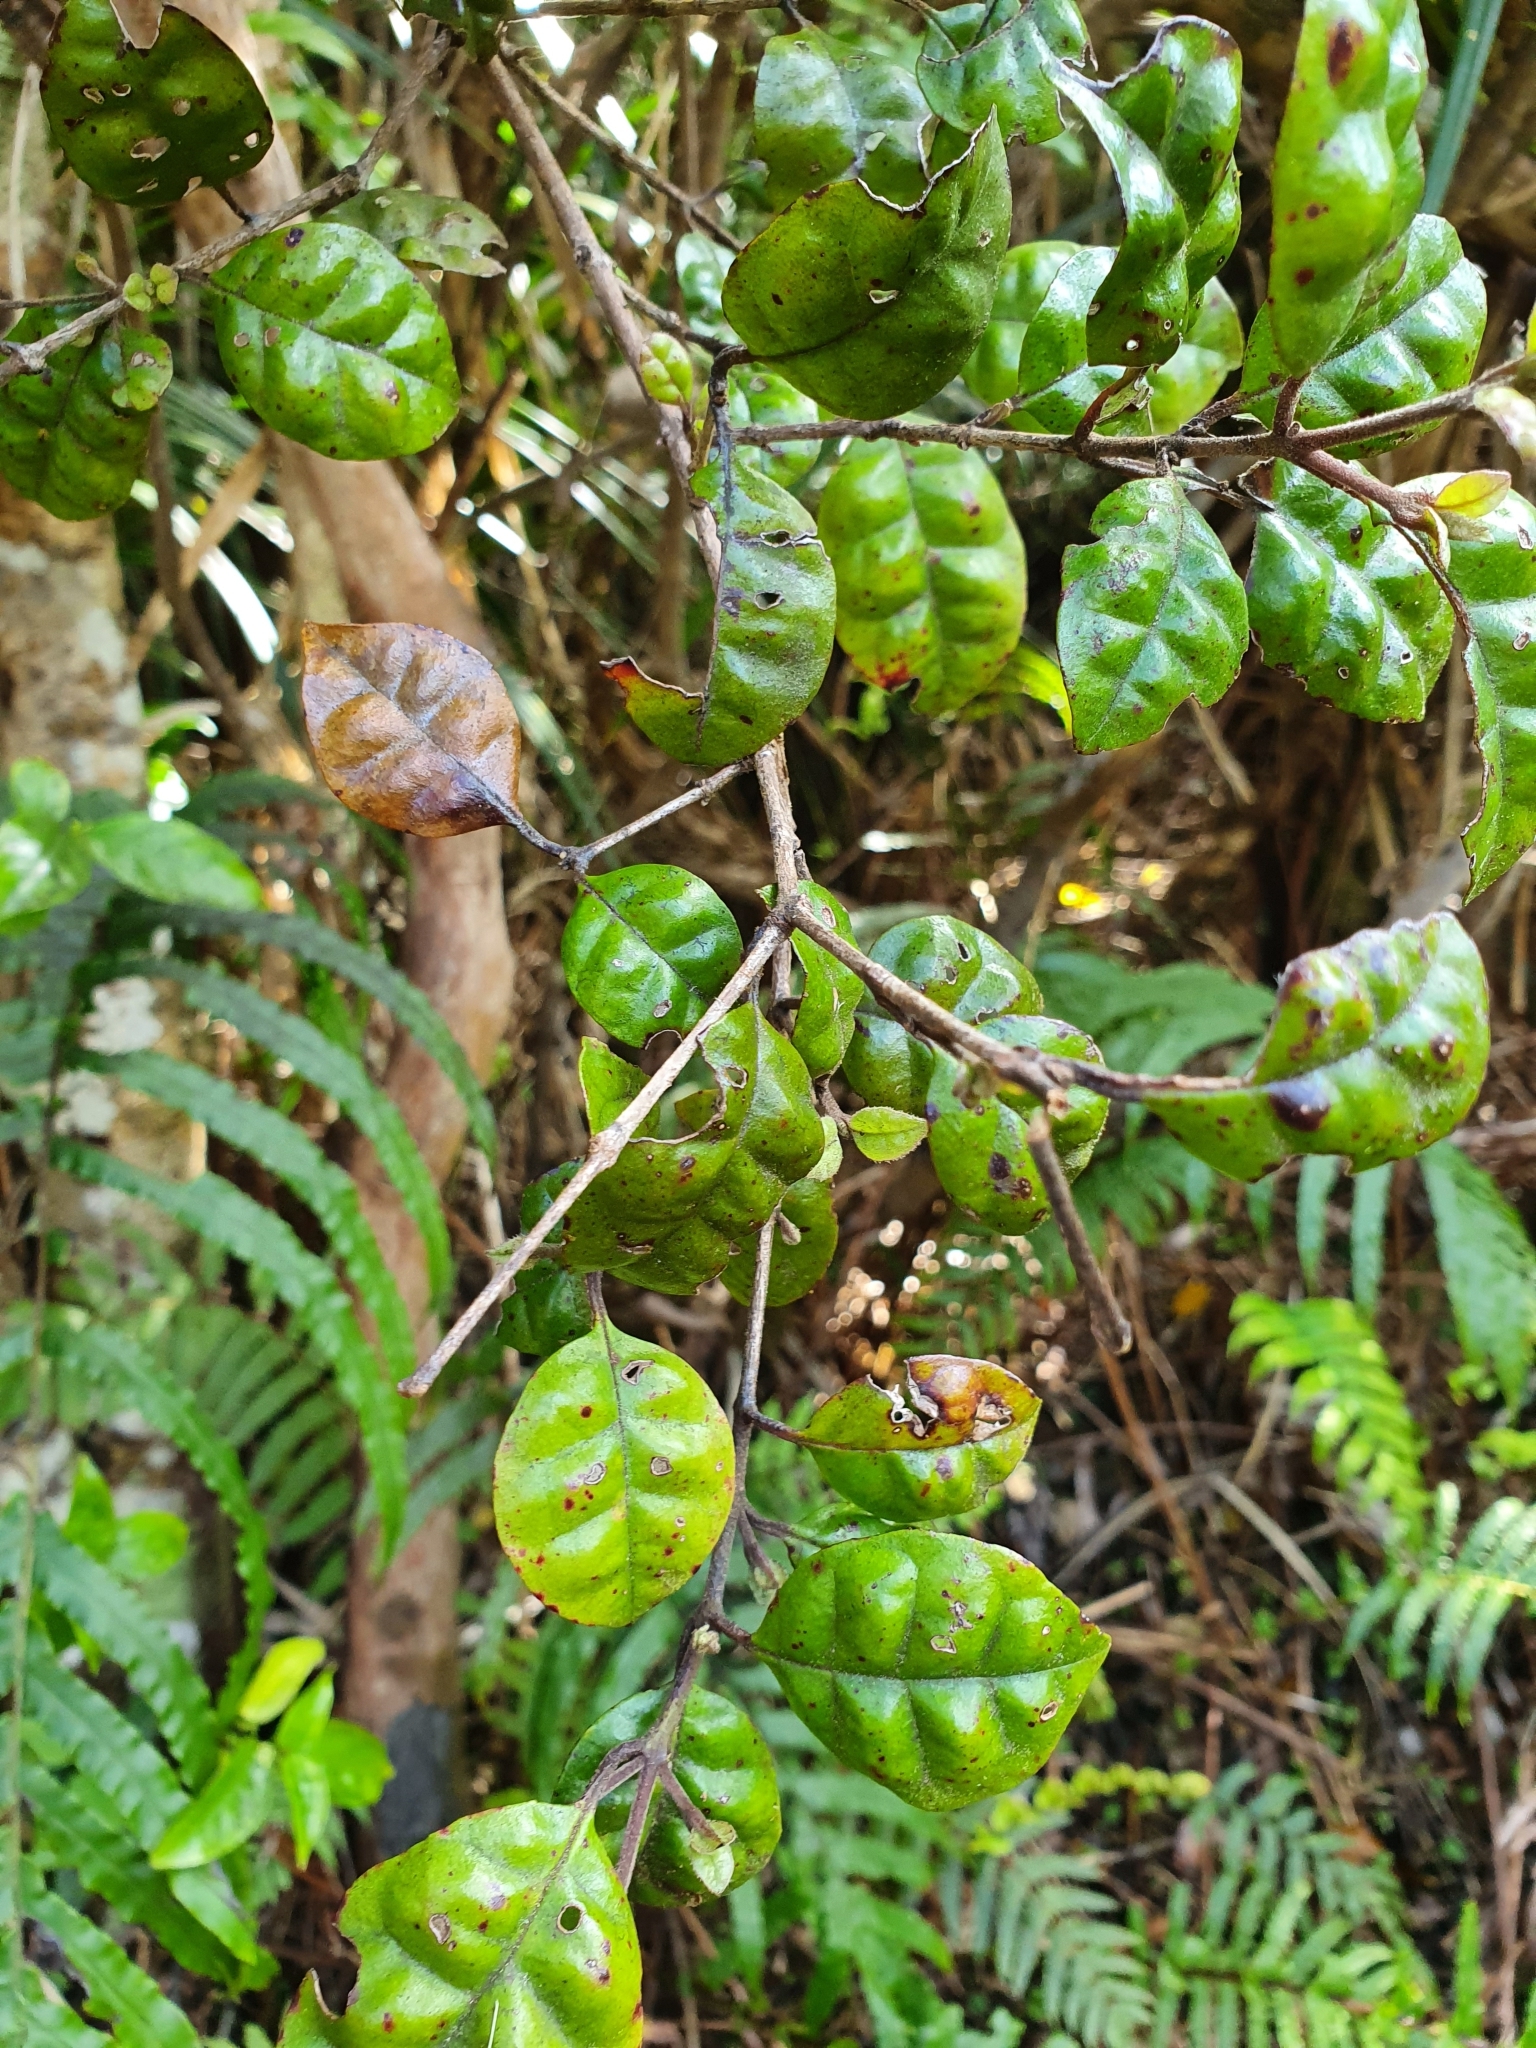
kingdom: Plantae
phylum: Tracheophyta
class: Magnoliopsida
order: Myrtales
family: Myrtaceae
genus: Lophomyrtus
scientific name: Lophomyrtus bullata
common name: Rama rama
